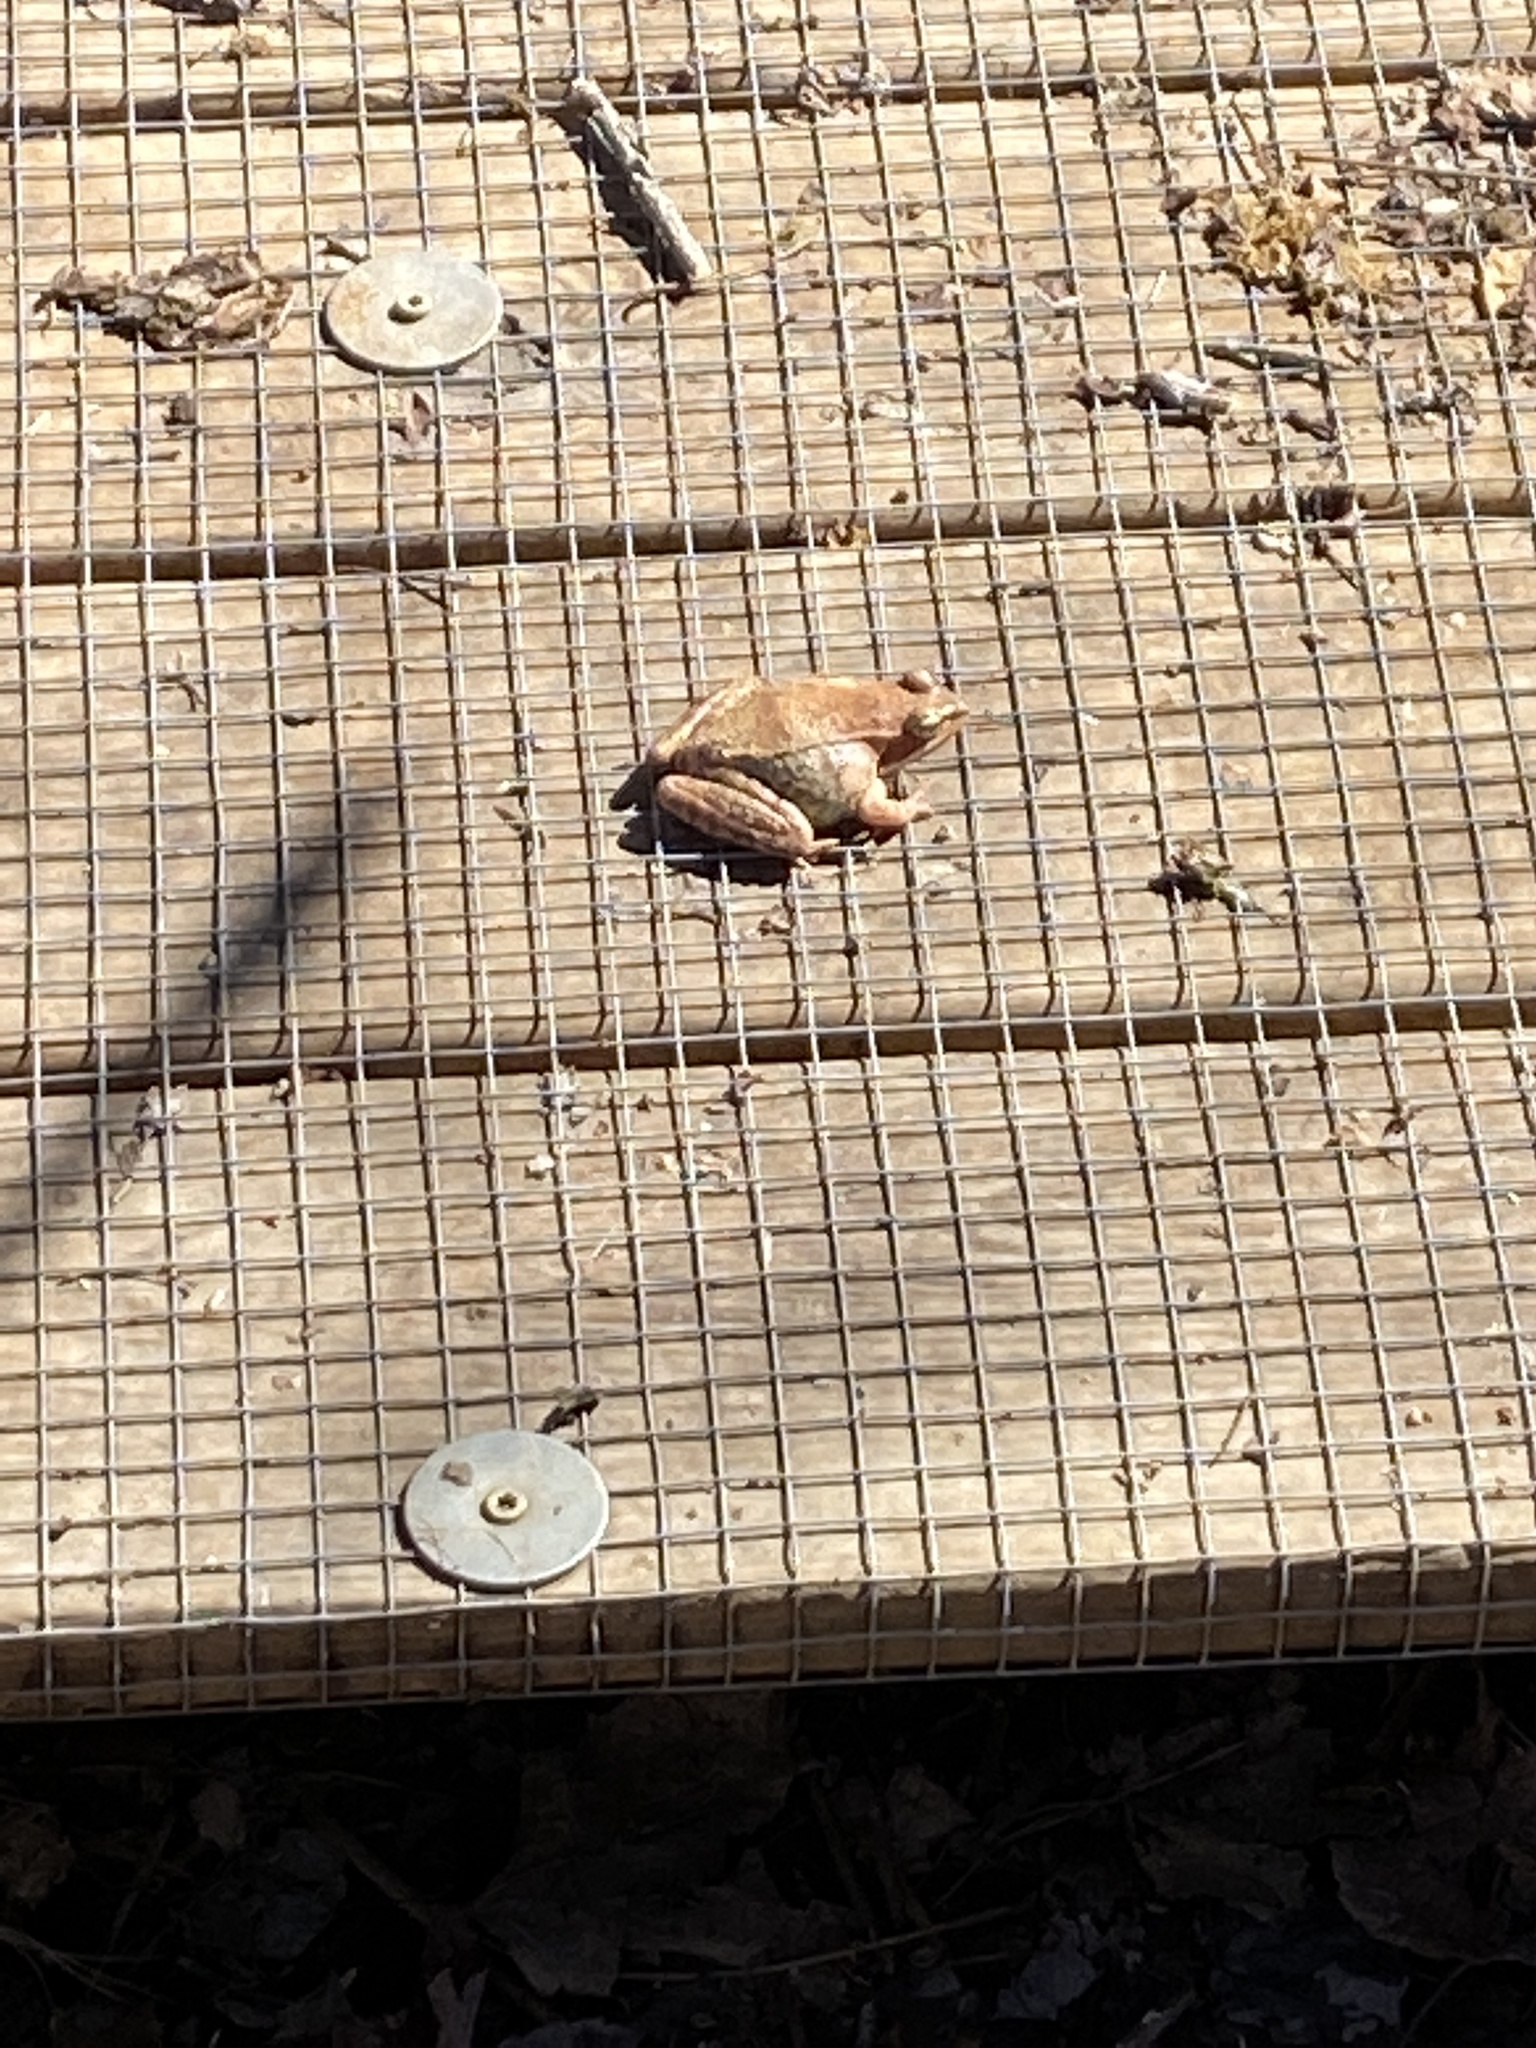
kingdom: Animalia
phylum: Chordata
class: Amphibia
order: Anura
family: Ranidae
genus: Lithobates
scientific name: Lithobates sylvaticus
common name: Wood frog
